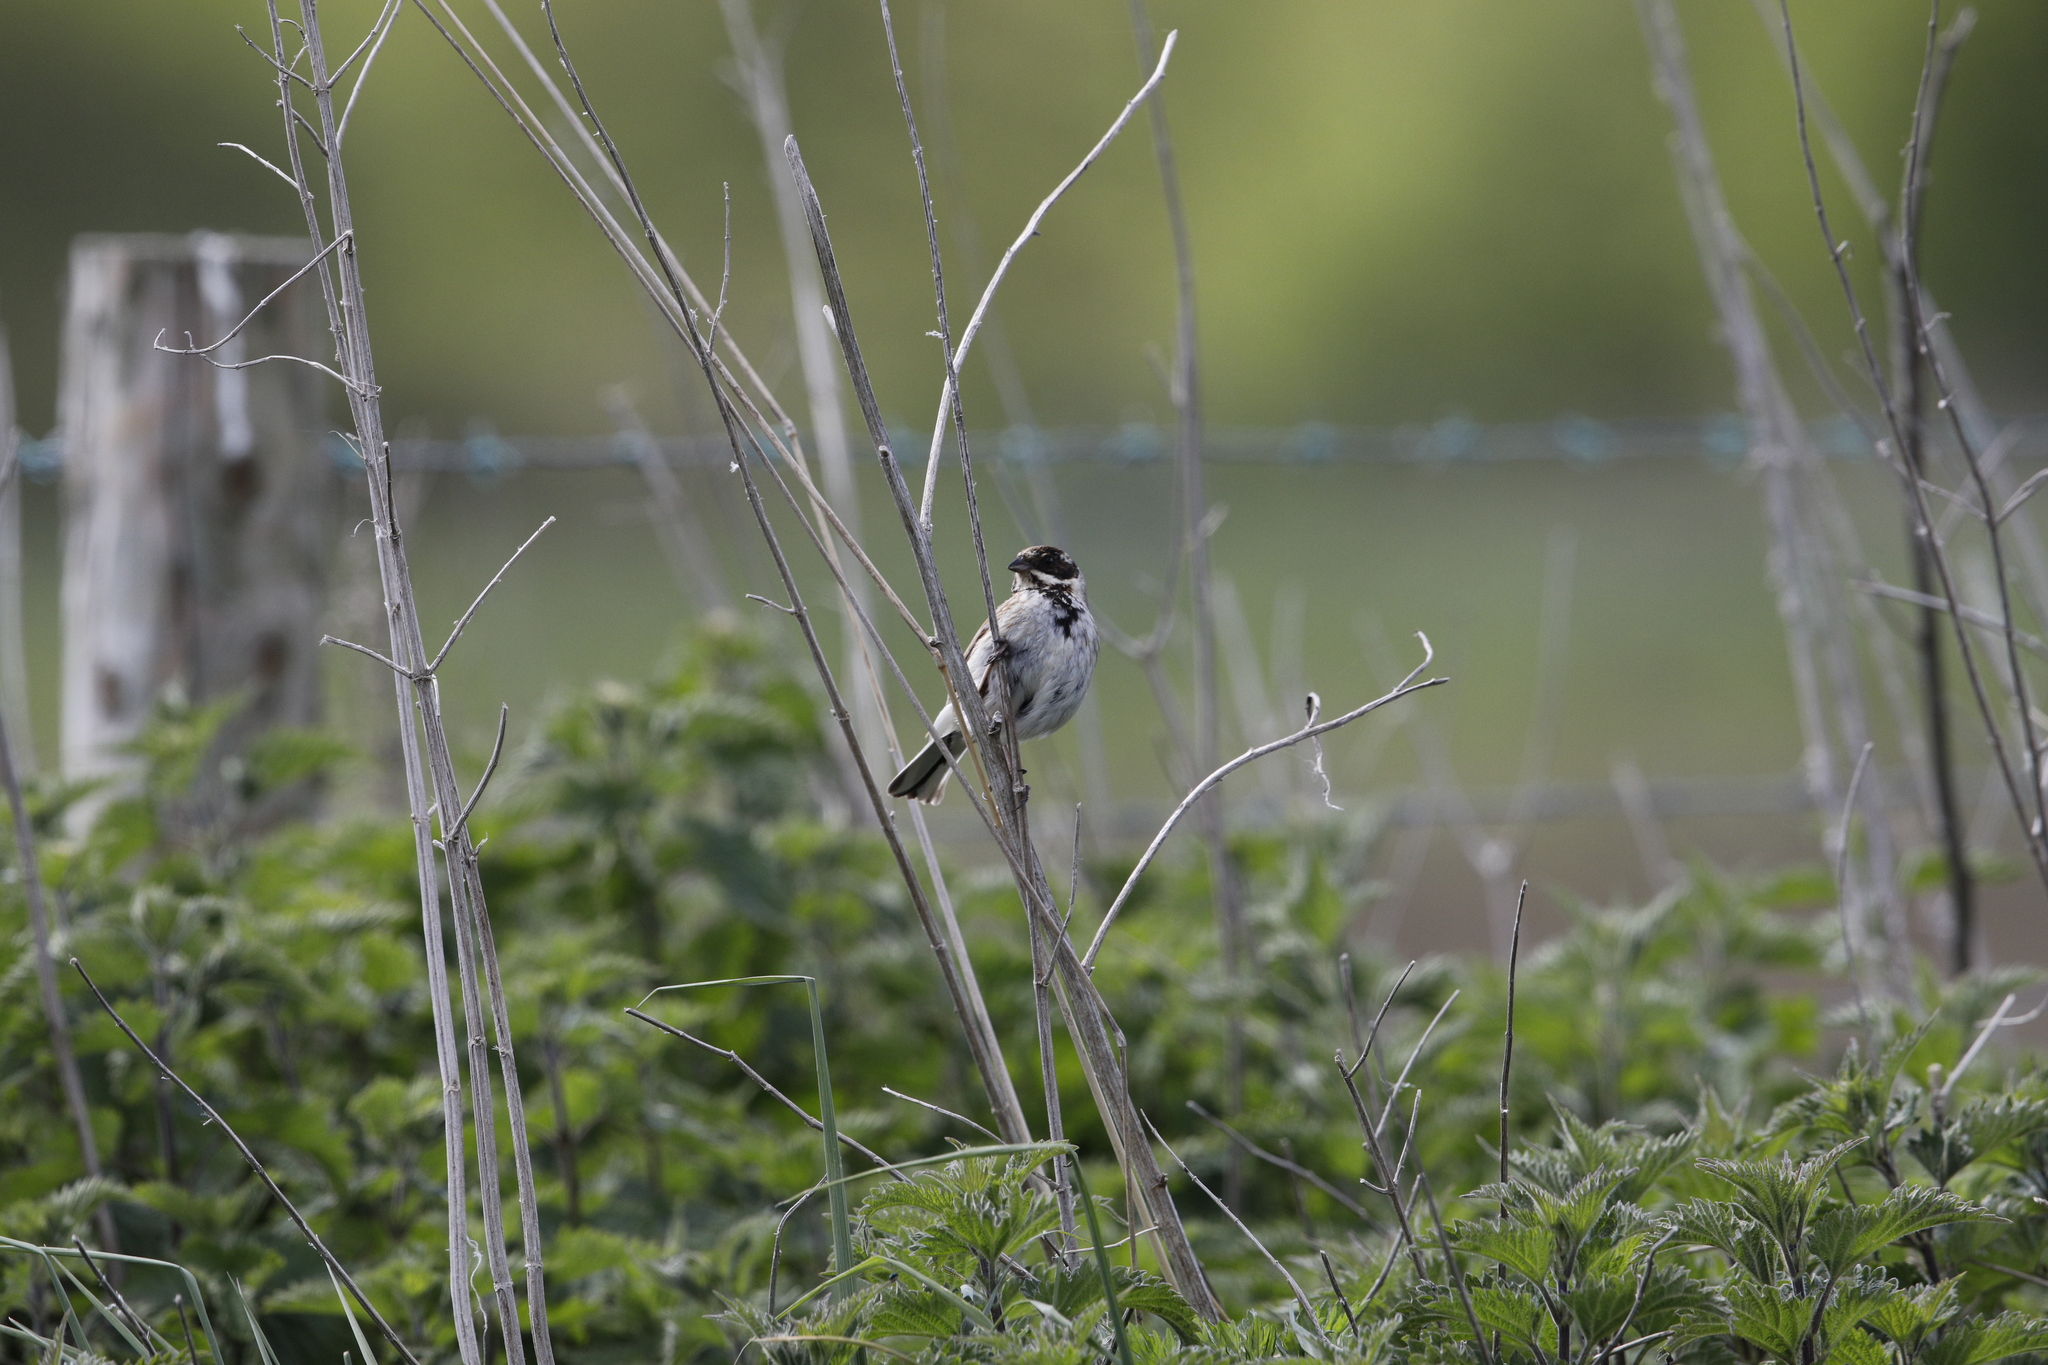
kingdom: Animalia
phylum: Chordata
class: Aves
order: Passeriformes
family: Emberizidae
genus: Emberiza
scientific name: Emberiza schoeniclus
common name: Reed bunting
